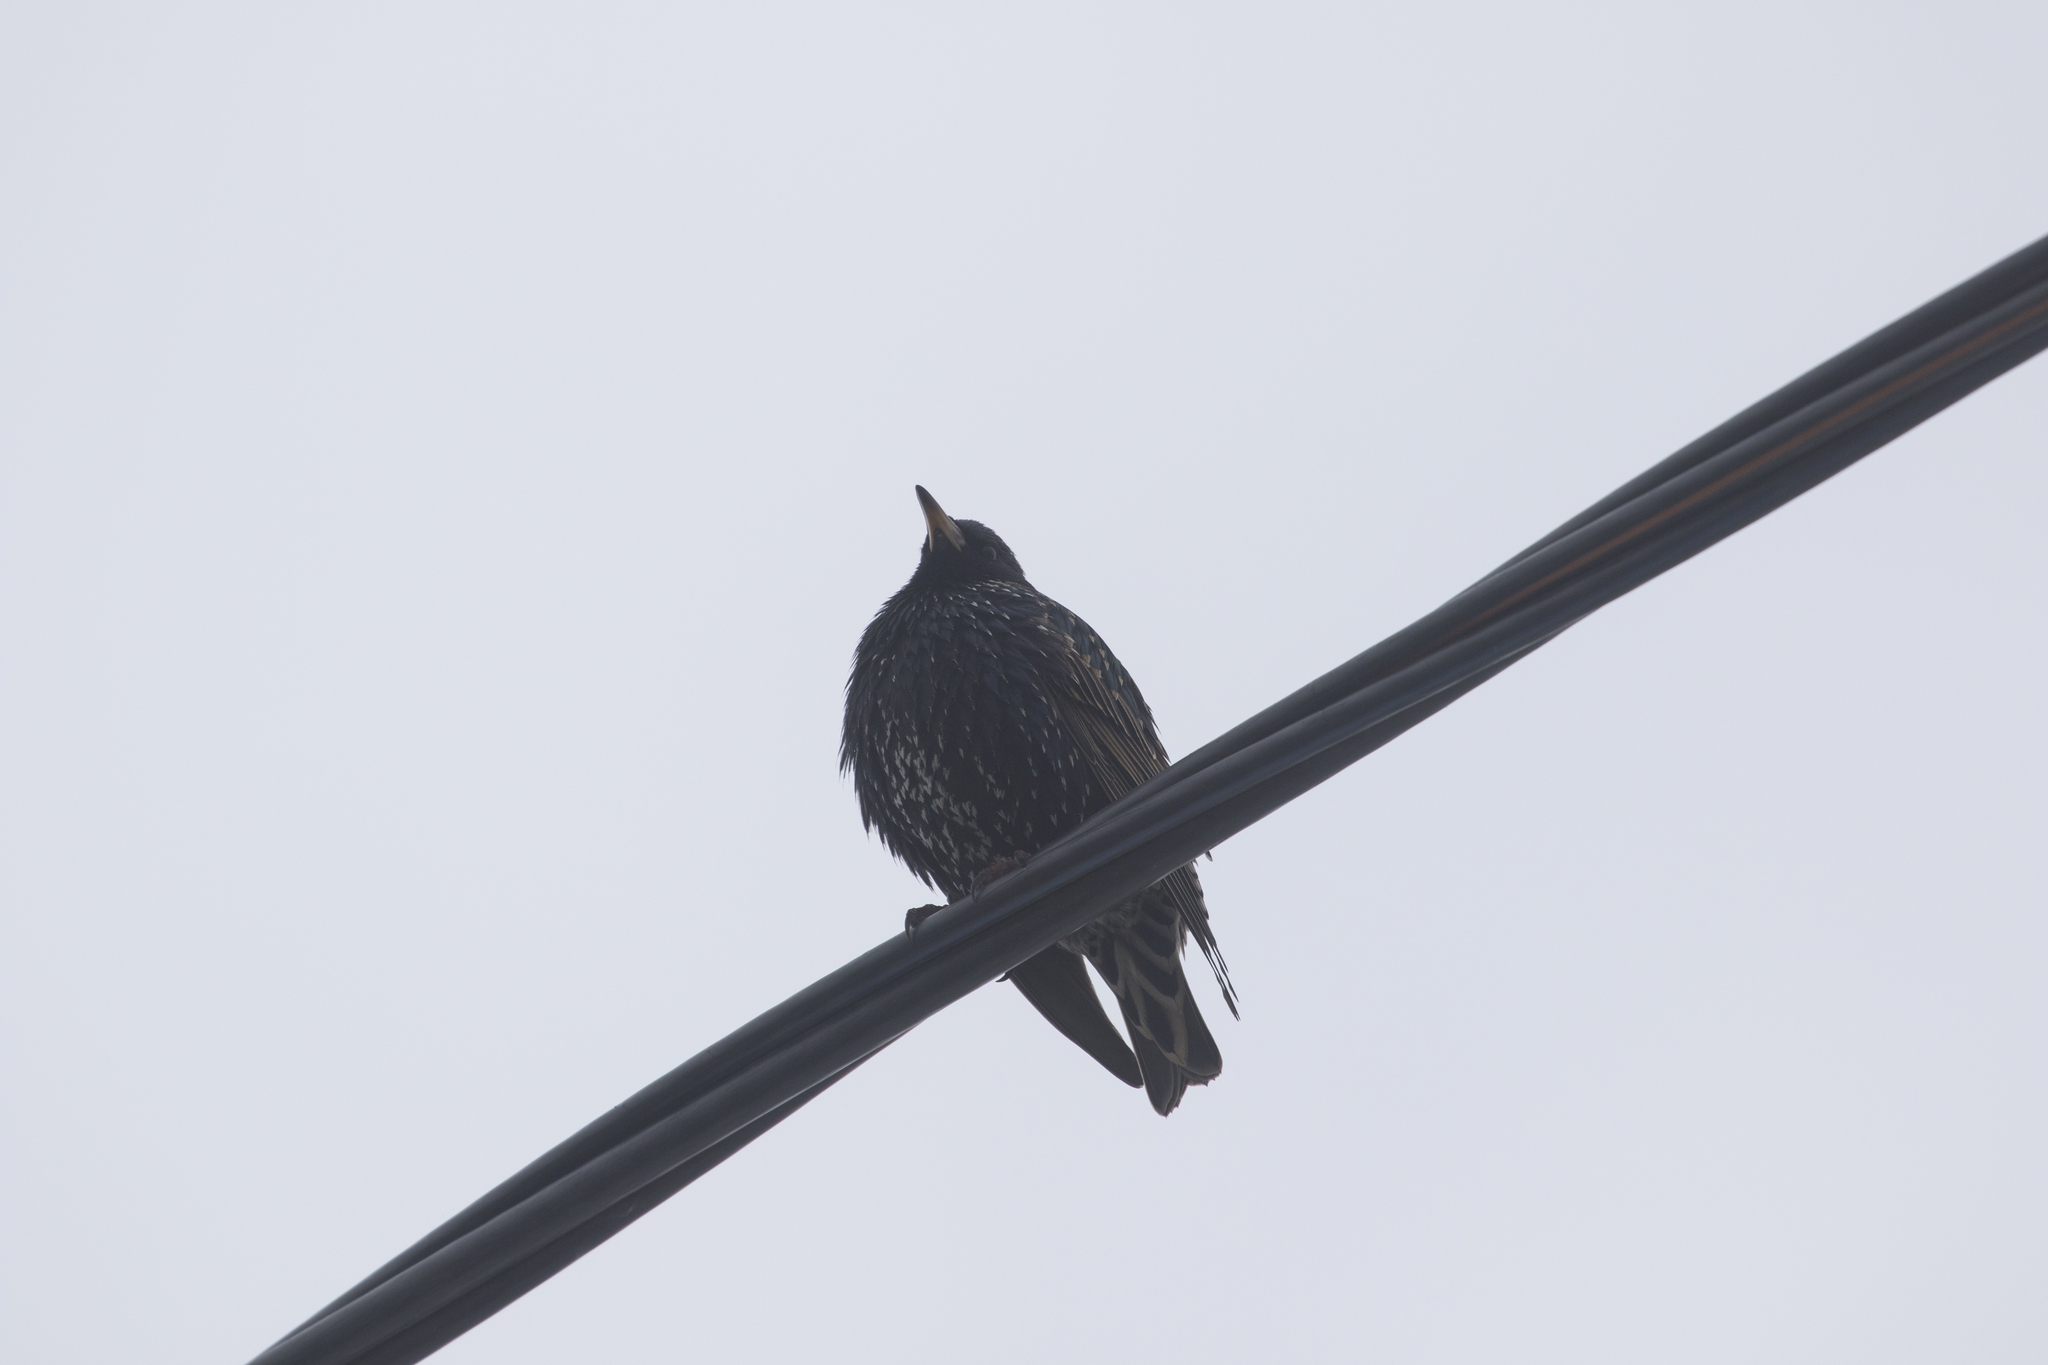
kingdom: Animalia
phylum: Chordata
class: Aves
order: Passeriformes
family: Sturnidae
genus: Sturnus
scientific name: Sturnus vulgaris
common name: Common starling
